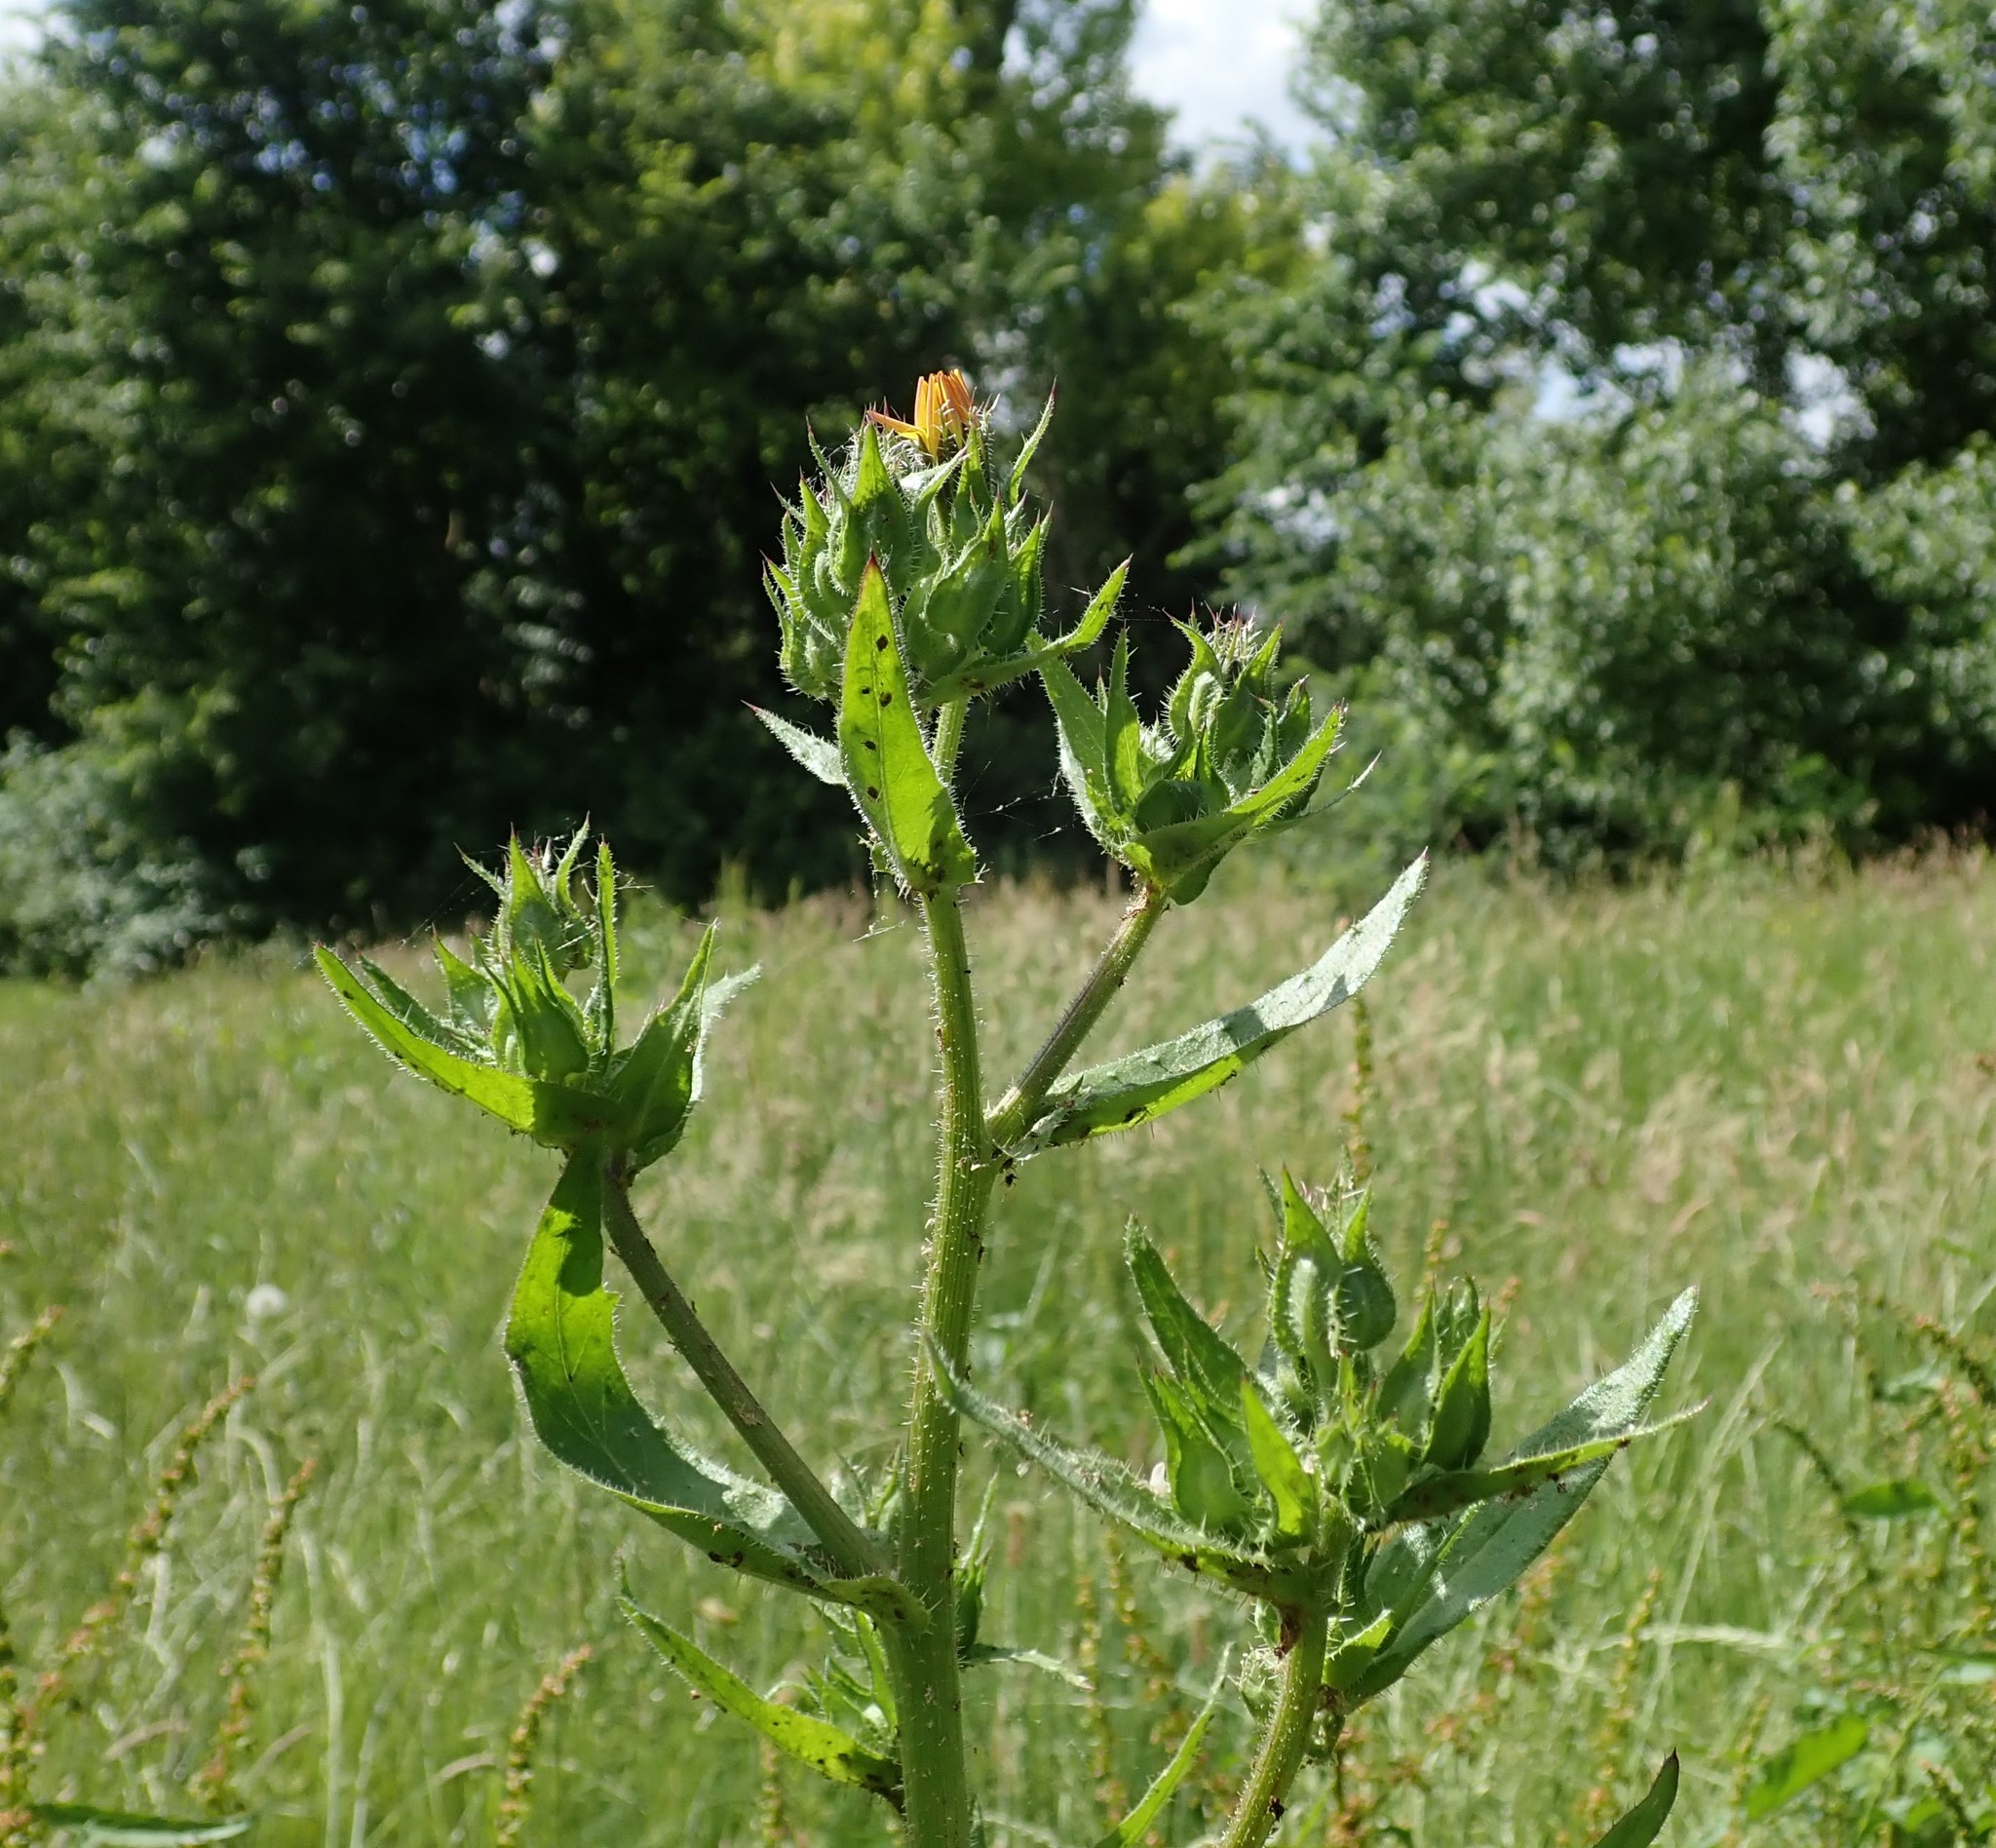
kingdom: Plantae
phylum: Tracheophyta
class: Magnoliopsida
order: Asterales
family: Asteraceae
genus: Helminthotheca
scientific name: Helminthotheca echioides
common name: Ox-tongue
